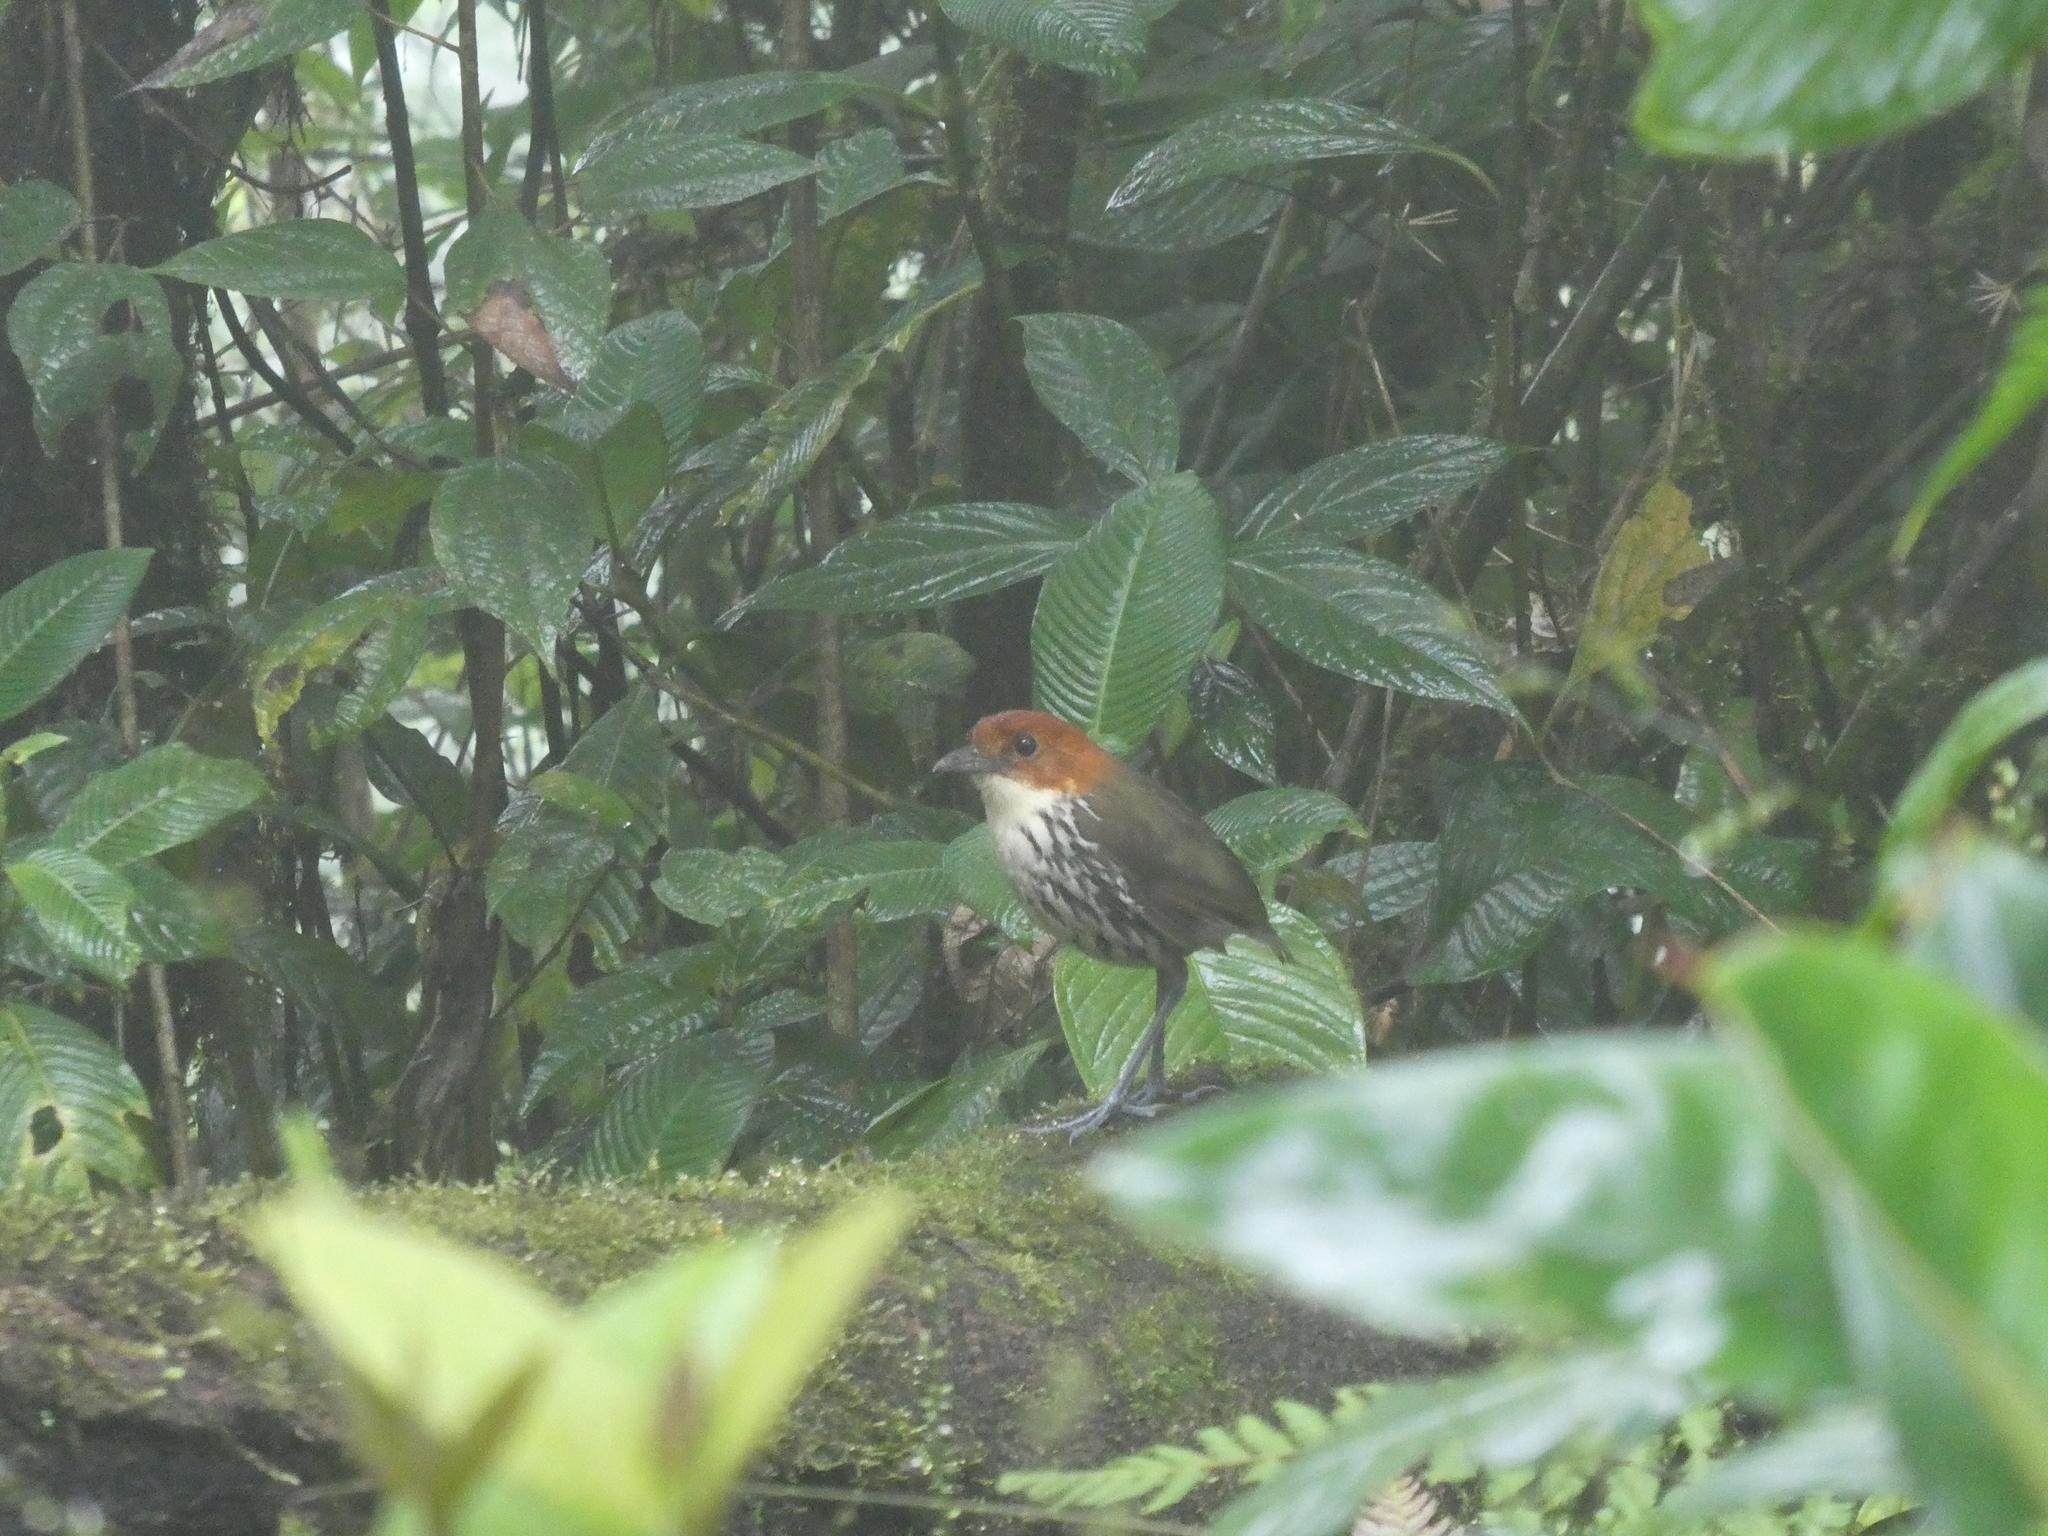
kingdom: Animalia
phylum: Chordata
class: Aves
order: Passeriformes
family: Grallariidae
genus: Grallaria
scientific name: Grallaria ruficapilla
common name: Chestnut-crowned antpitta
